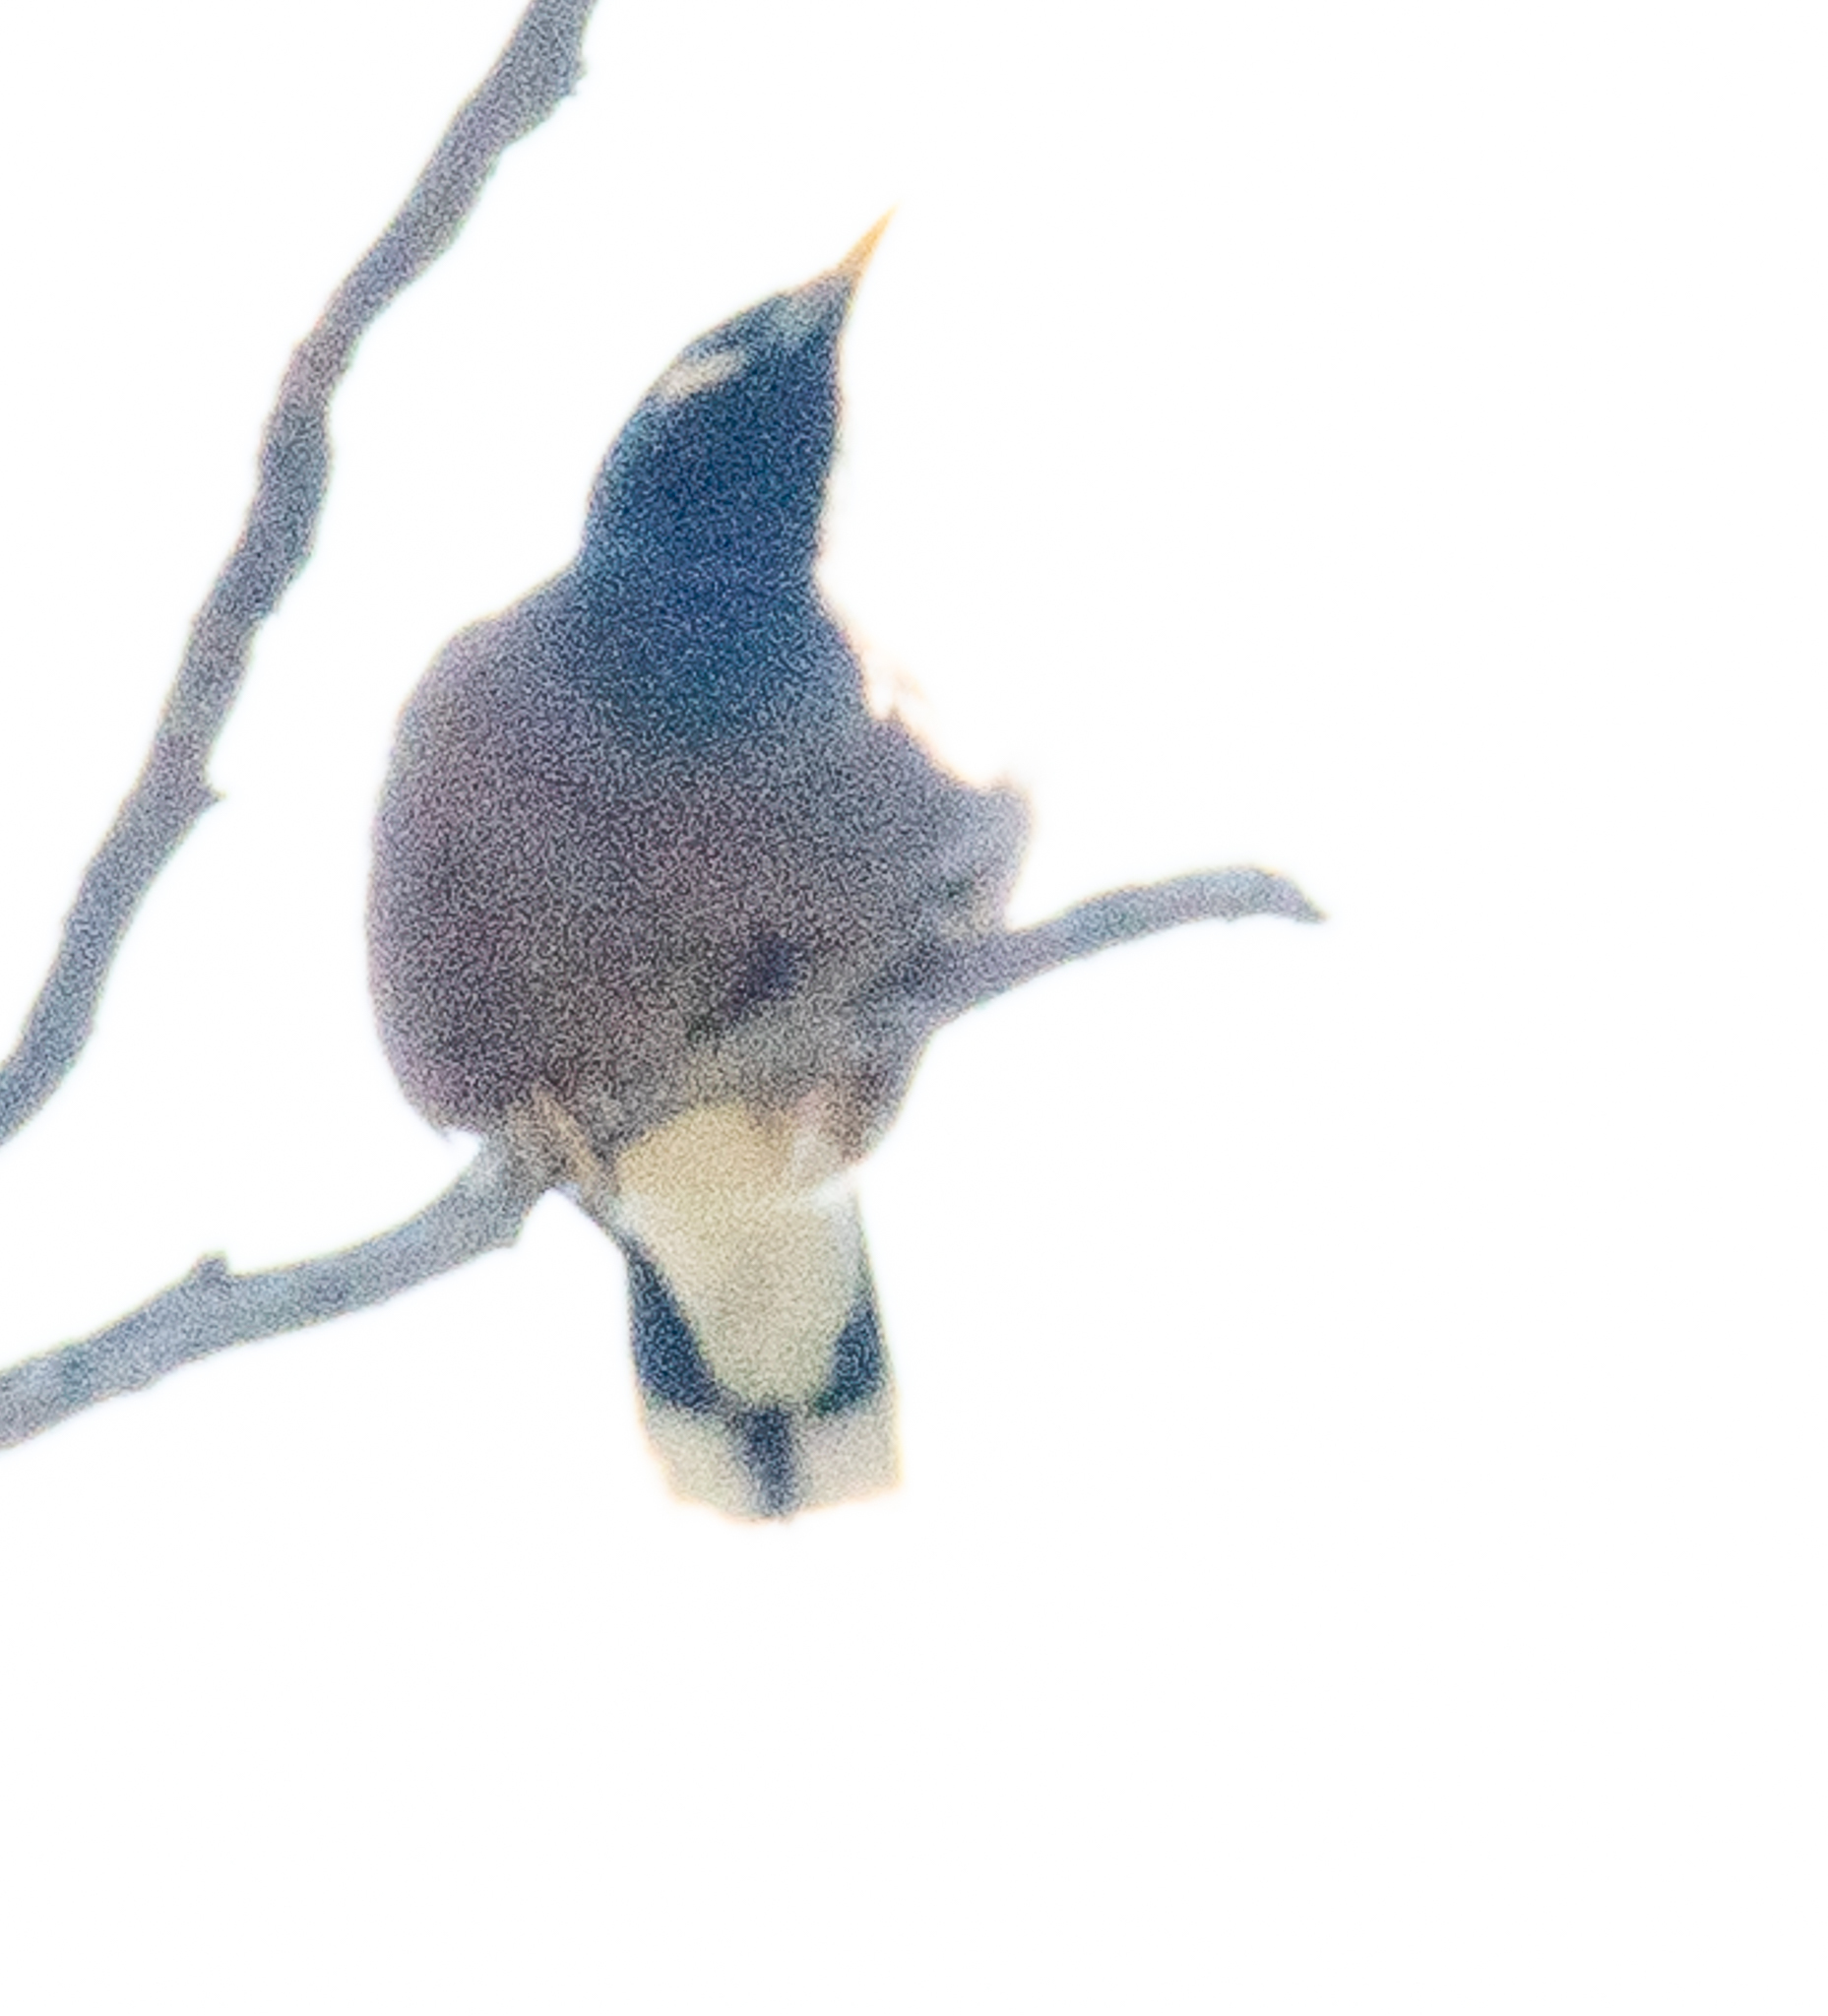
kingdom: Animalia
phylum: Chordata
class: Aves
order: Passeriformes
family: Sturnidae
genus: Acridotheres
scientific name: Acridotheres tristis
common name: Common myna
